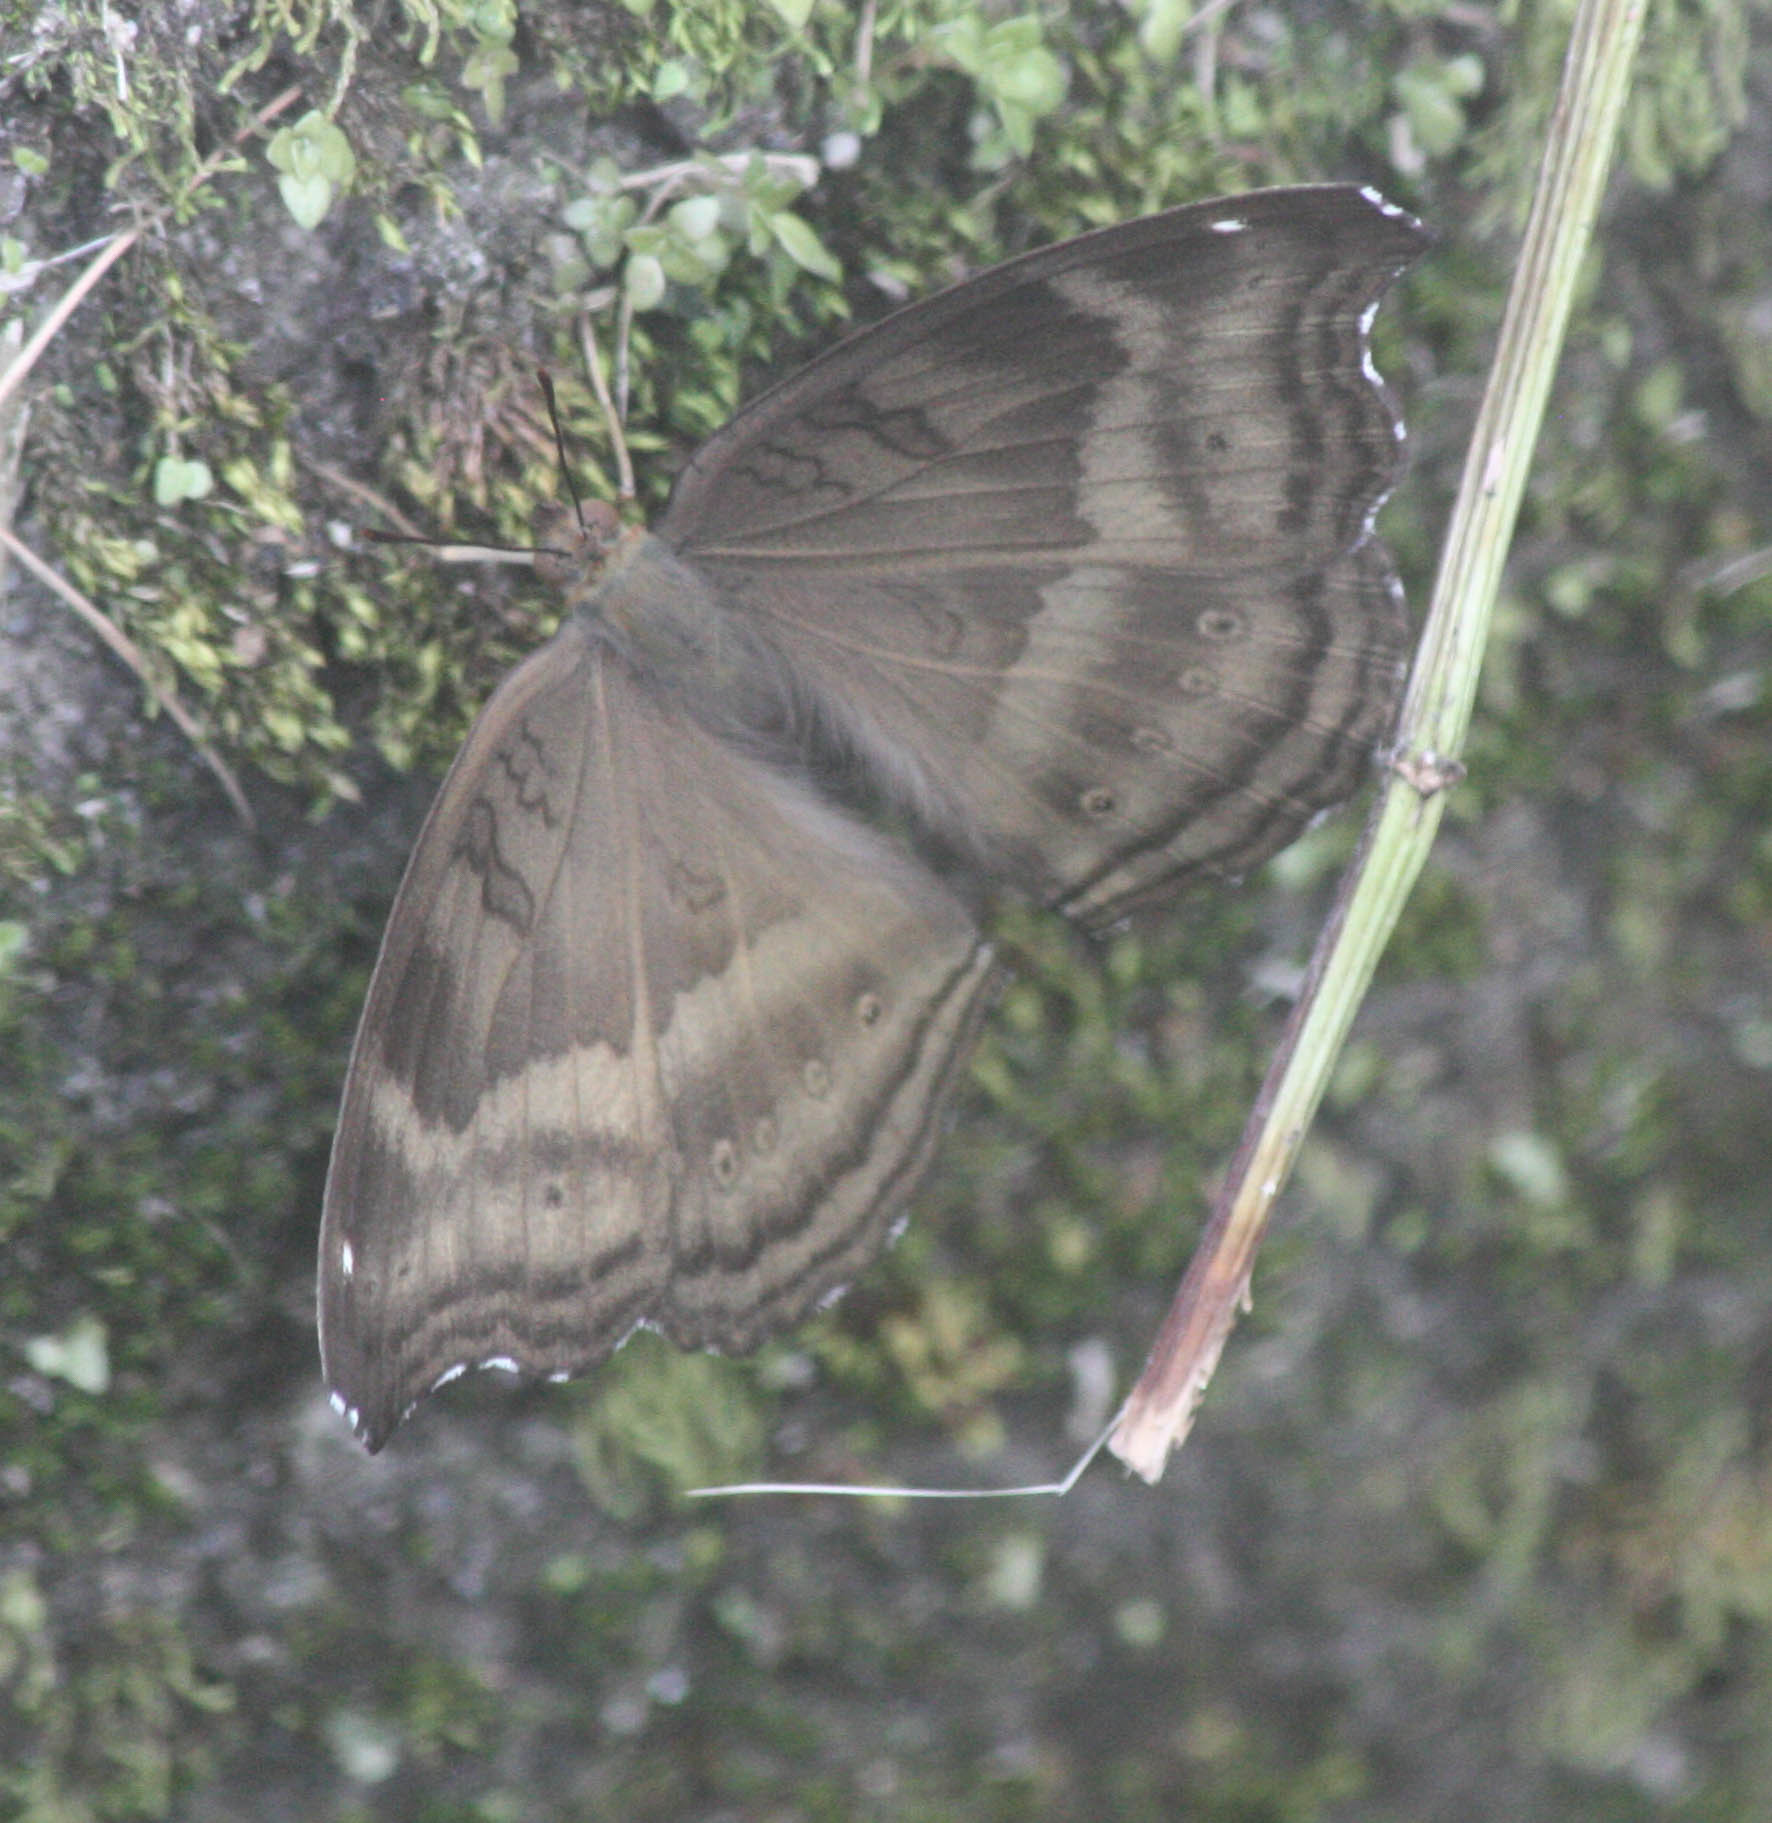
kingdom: Animalia
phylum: Arthropoda
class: Insecta
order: Lepidoptera
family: Nymphalidae
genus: Junonia
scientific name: Junonia iphita
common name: Chocolate pansy
